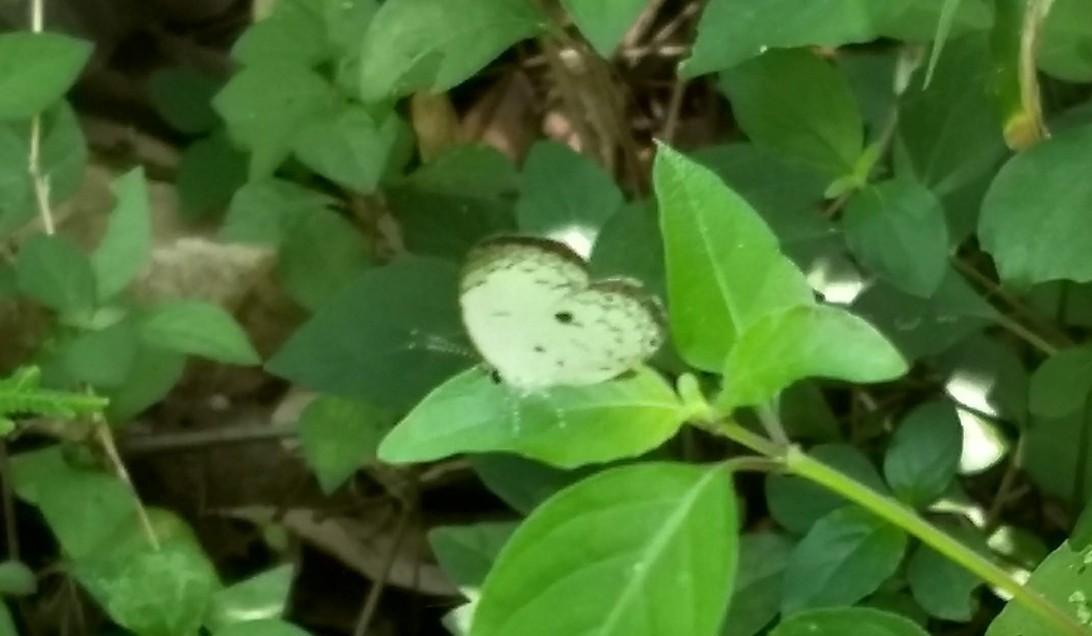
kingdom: Animalia
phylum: Arthropoda
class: Insecta
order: Lepidoptera
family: Lycaenidae
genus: Neopithecops
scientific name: Neopithecops zalmora
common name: Quaker
